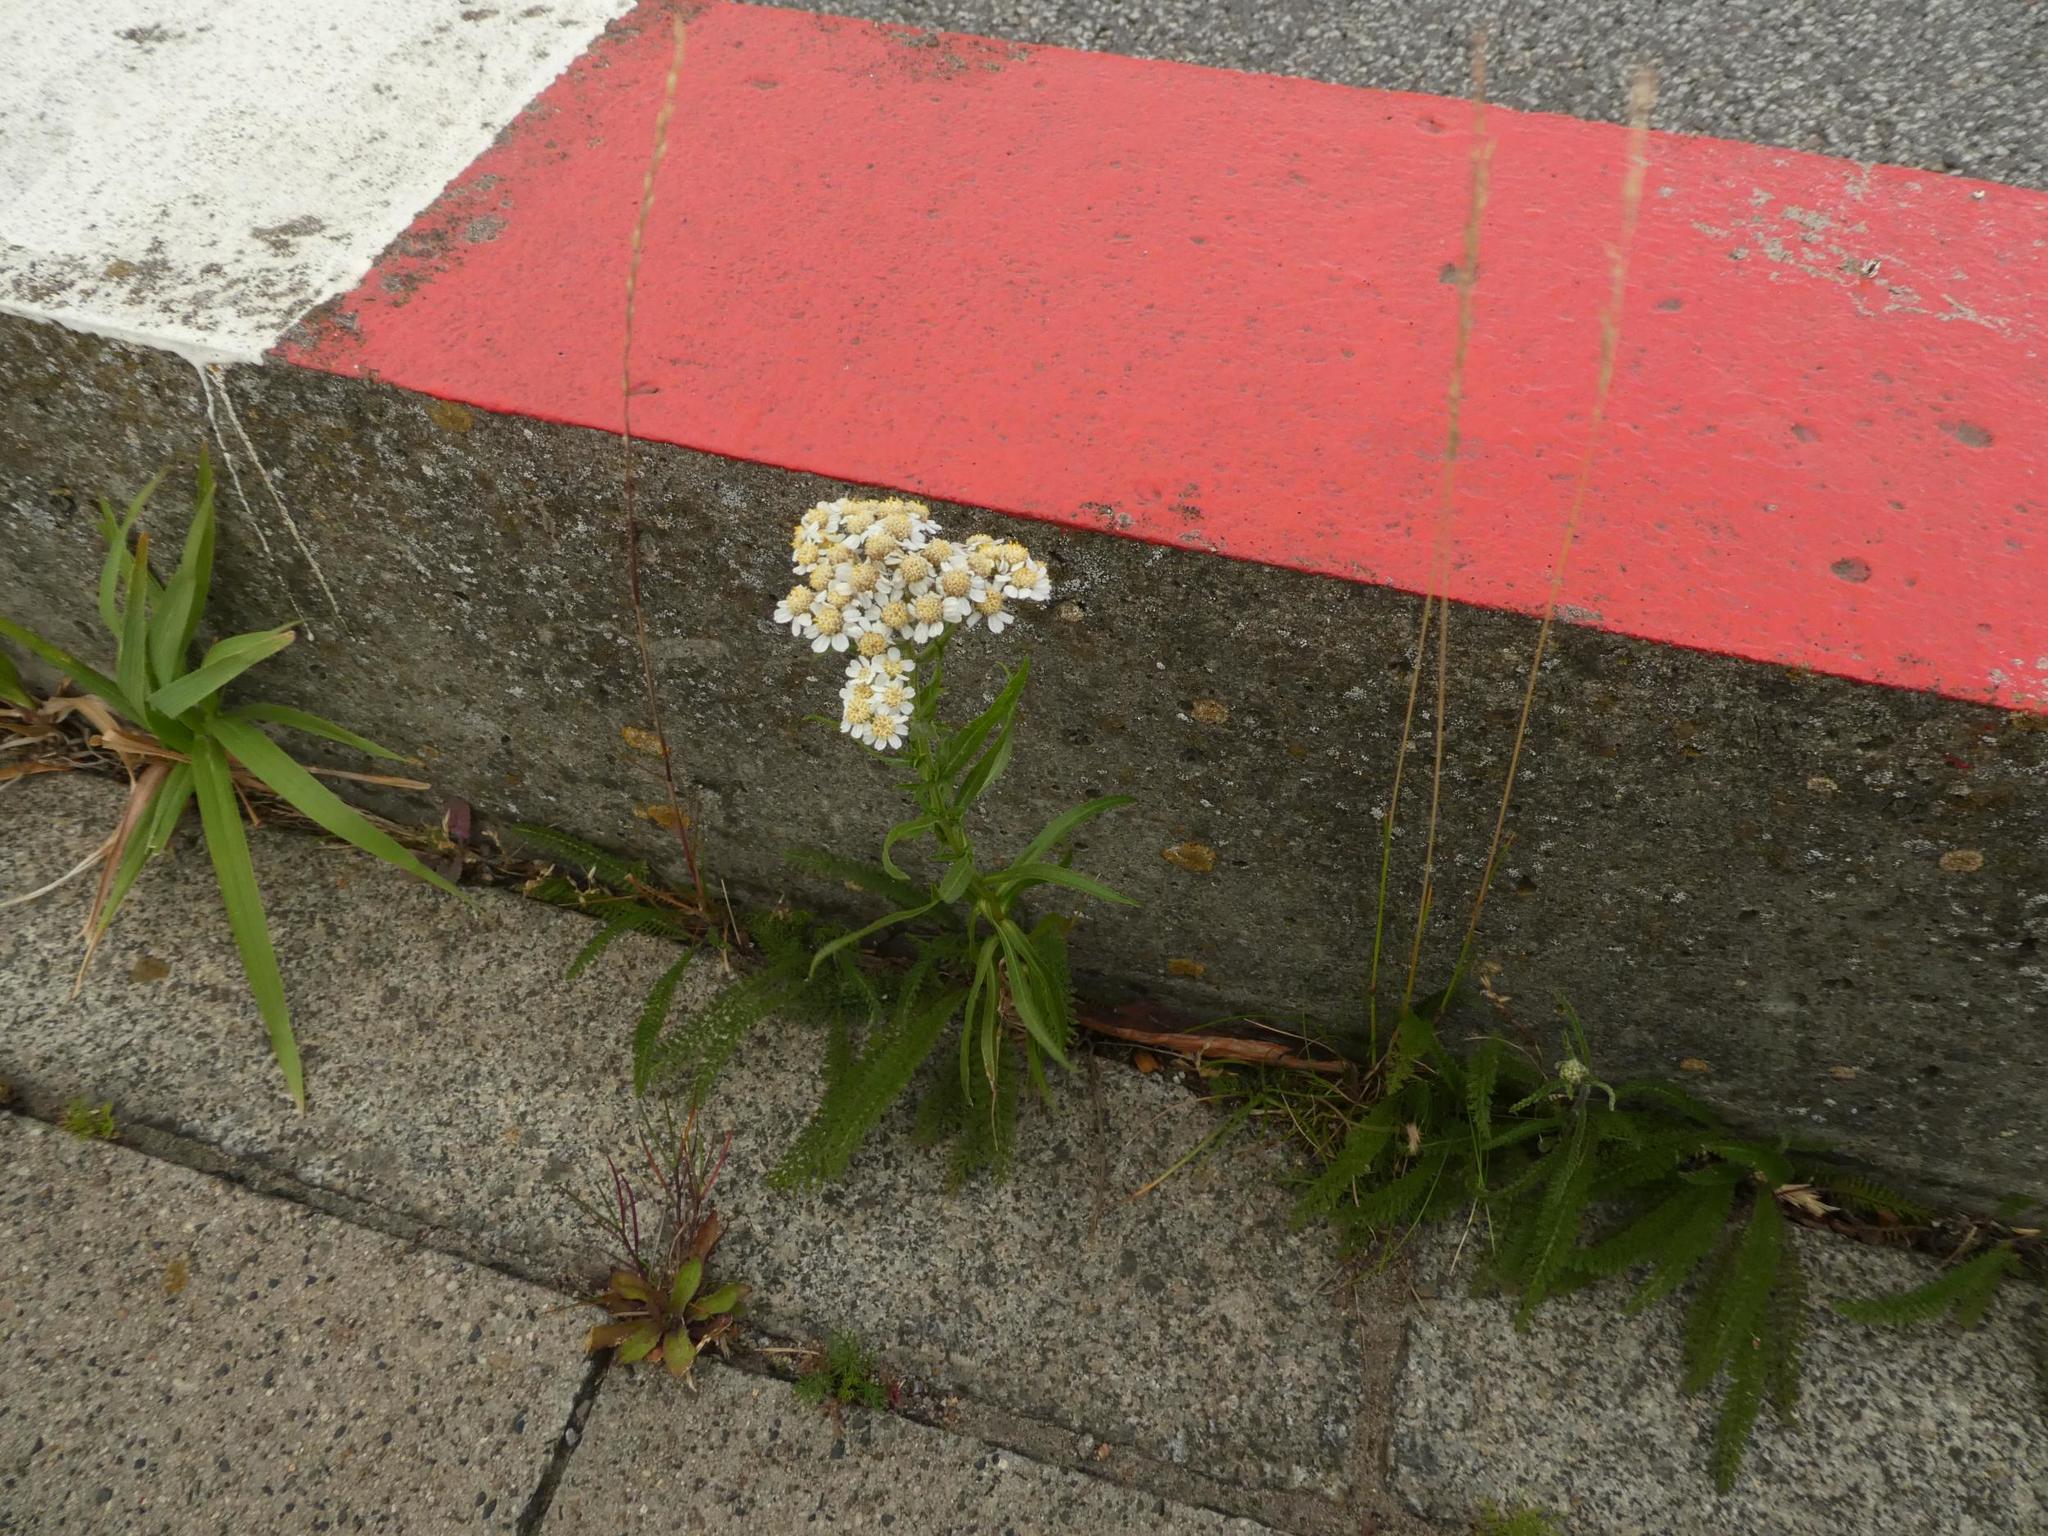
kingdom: Plantae
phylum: Tracheophyta
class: Magnoliopsida
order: Asterales
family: Asteraceae
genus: Achillea
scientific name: Achillea ptarmica
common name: Sneezeweed
